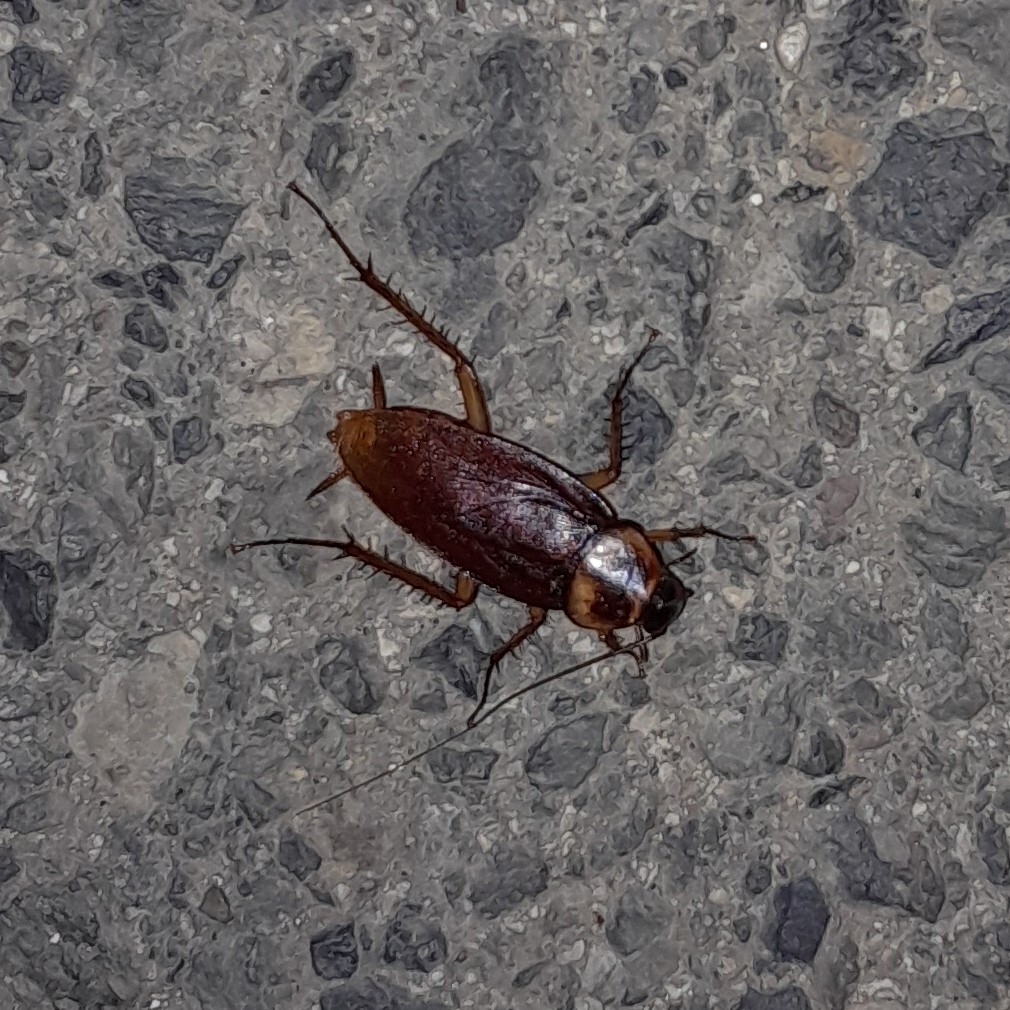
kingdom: Animalia
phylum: Arthropoda
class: Insecta
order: Blattodea
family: Blattidae
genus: Periplaneta
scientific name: Periplaneta americana
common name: American cockroach
